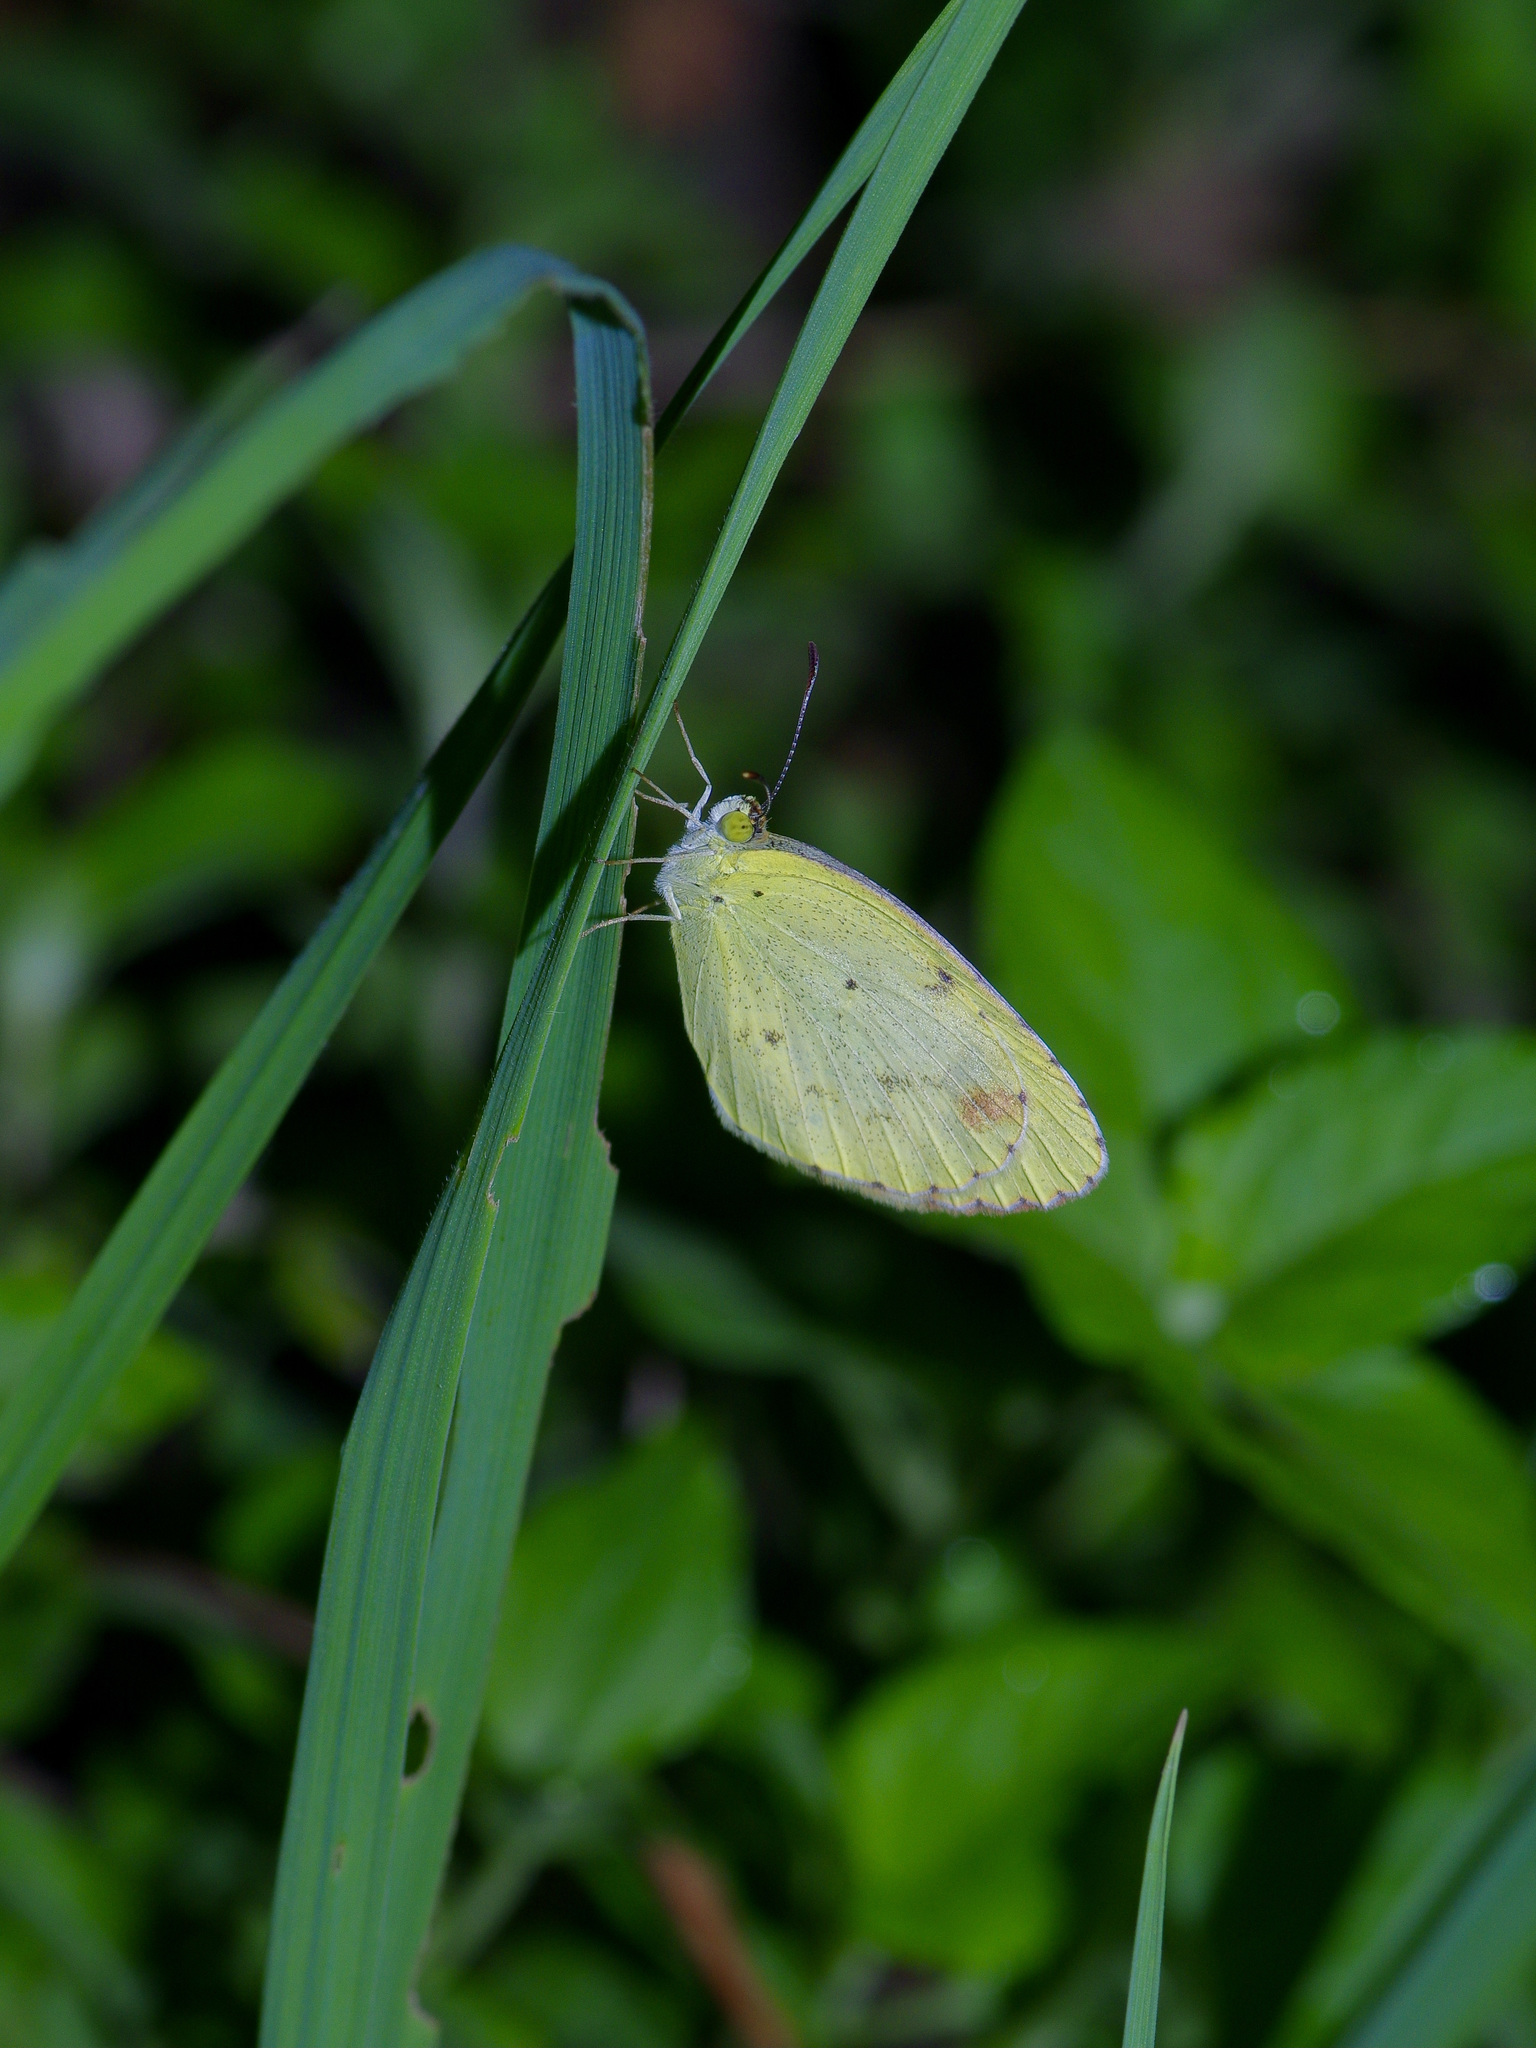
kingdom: Animalia
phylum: Arthropoda
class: Insecta
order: Lepidoptera
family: Pieridae
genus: Pyrisitia
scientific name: Pyrisitia lisa
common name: Little yellow
